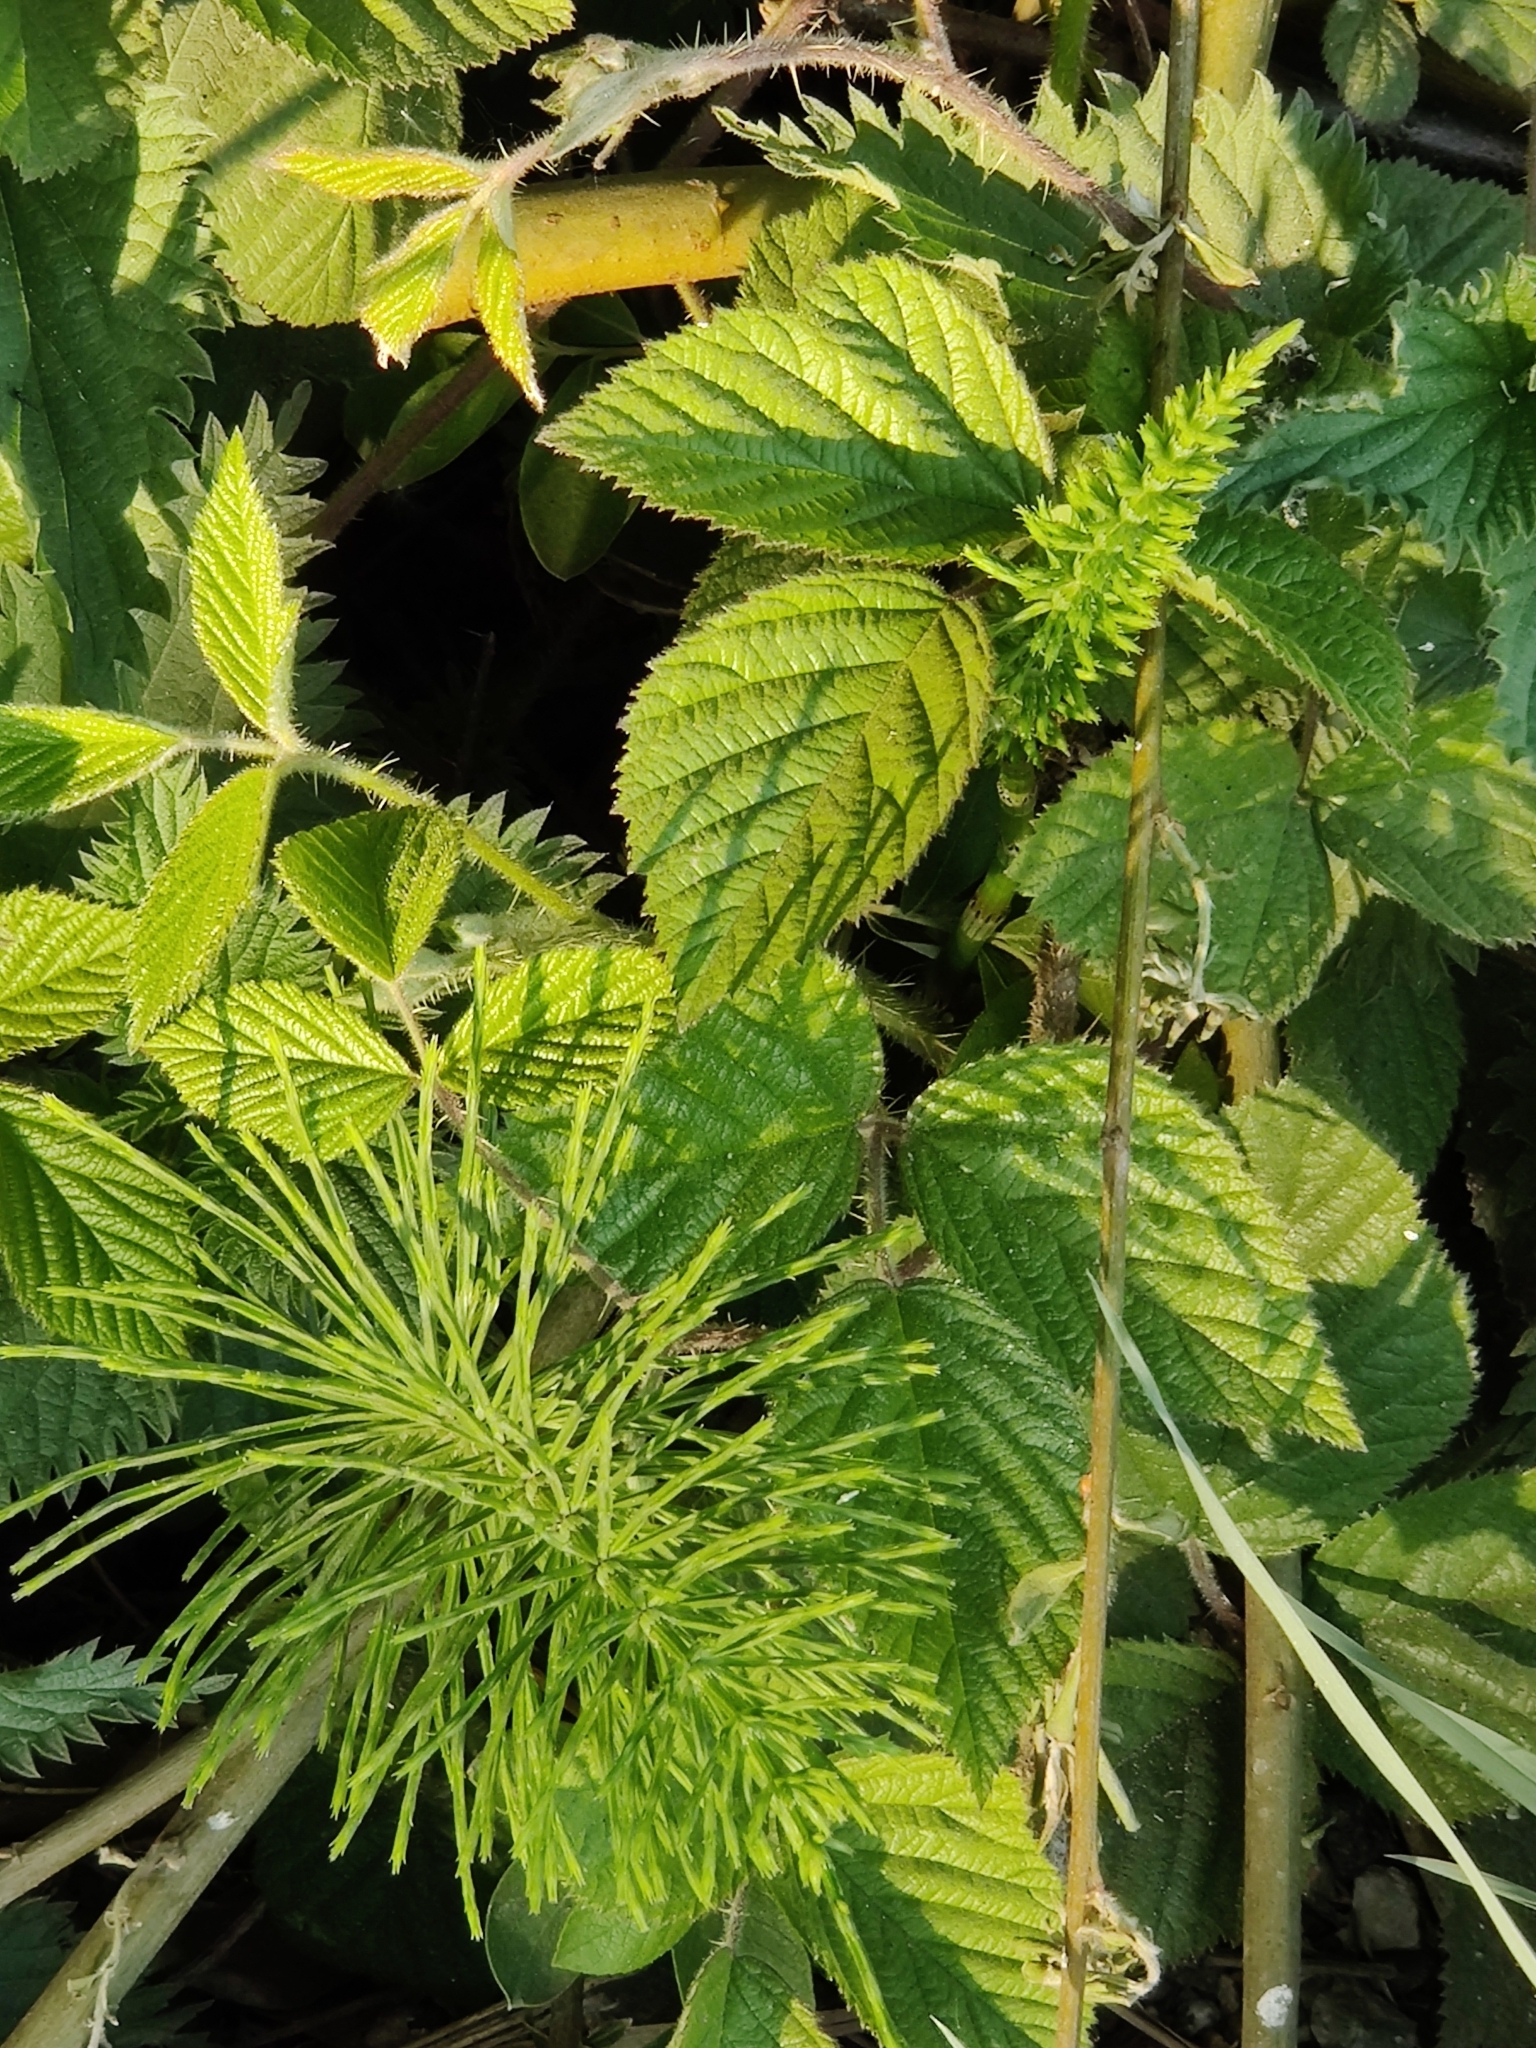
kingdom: Plantae
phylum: Tracheophyta
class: Polypodiopsida
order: Equisetales
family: Equisetaceae
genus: Equisetum
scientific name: Equisetum arvense
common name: Field horsetail
